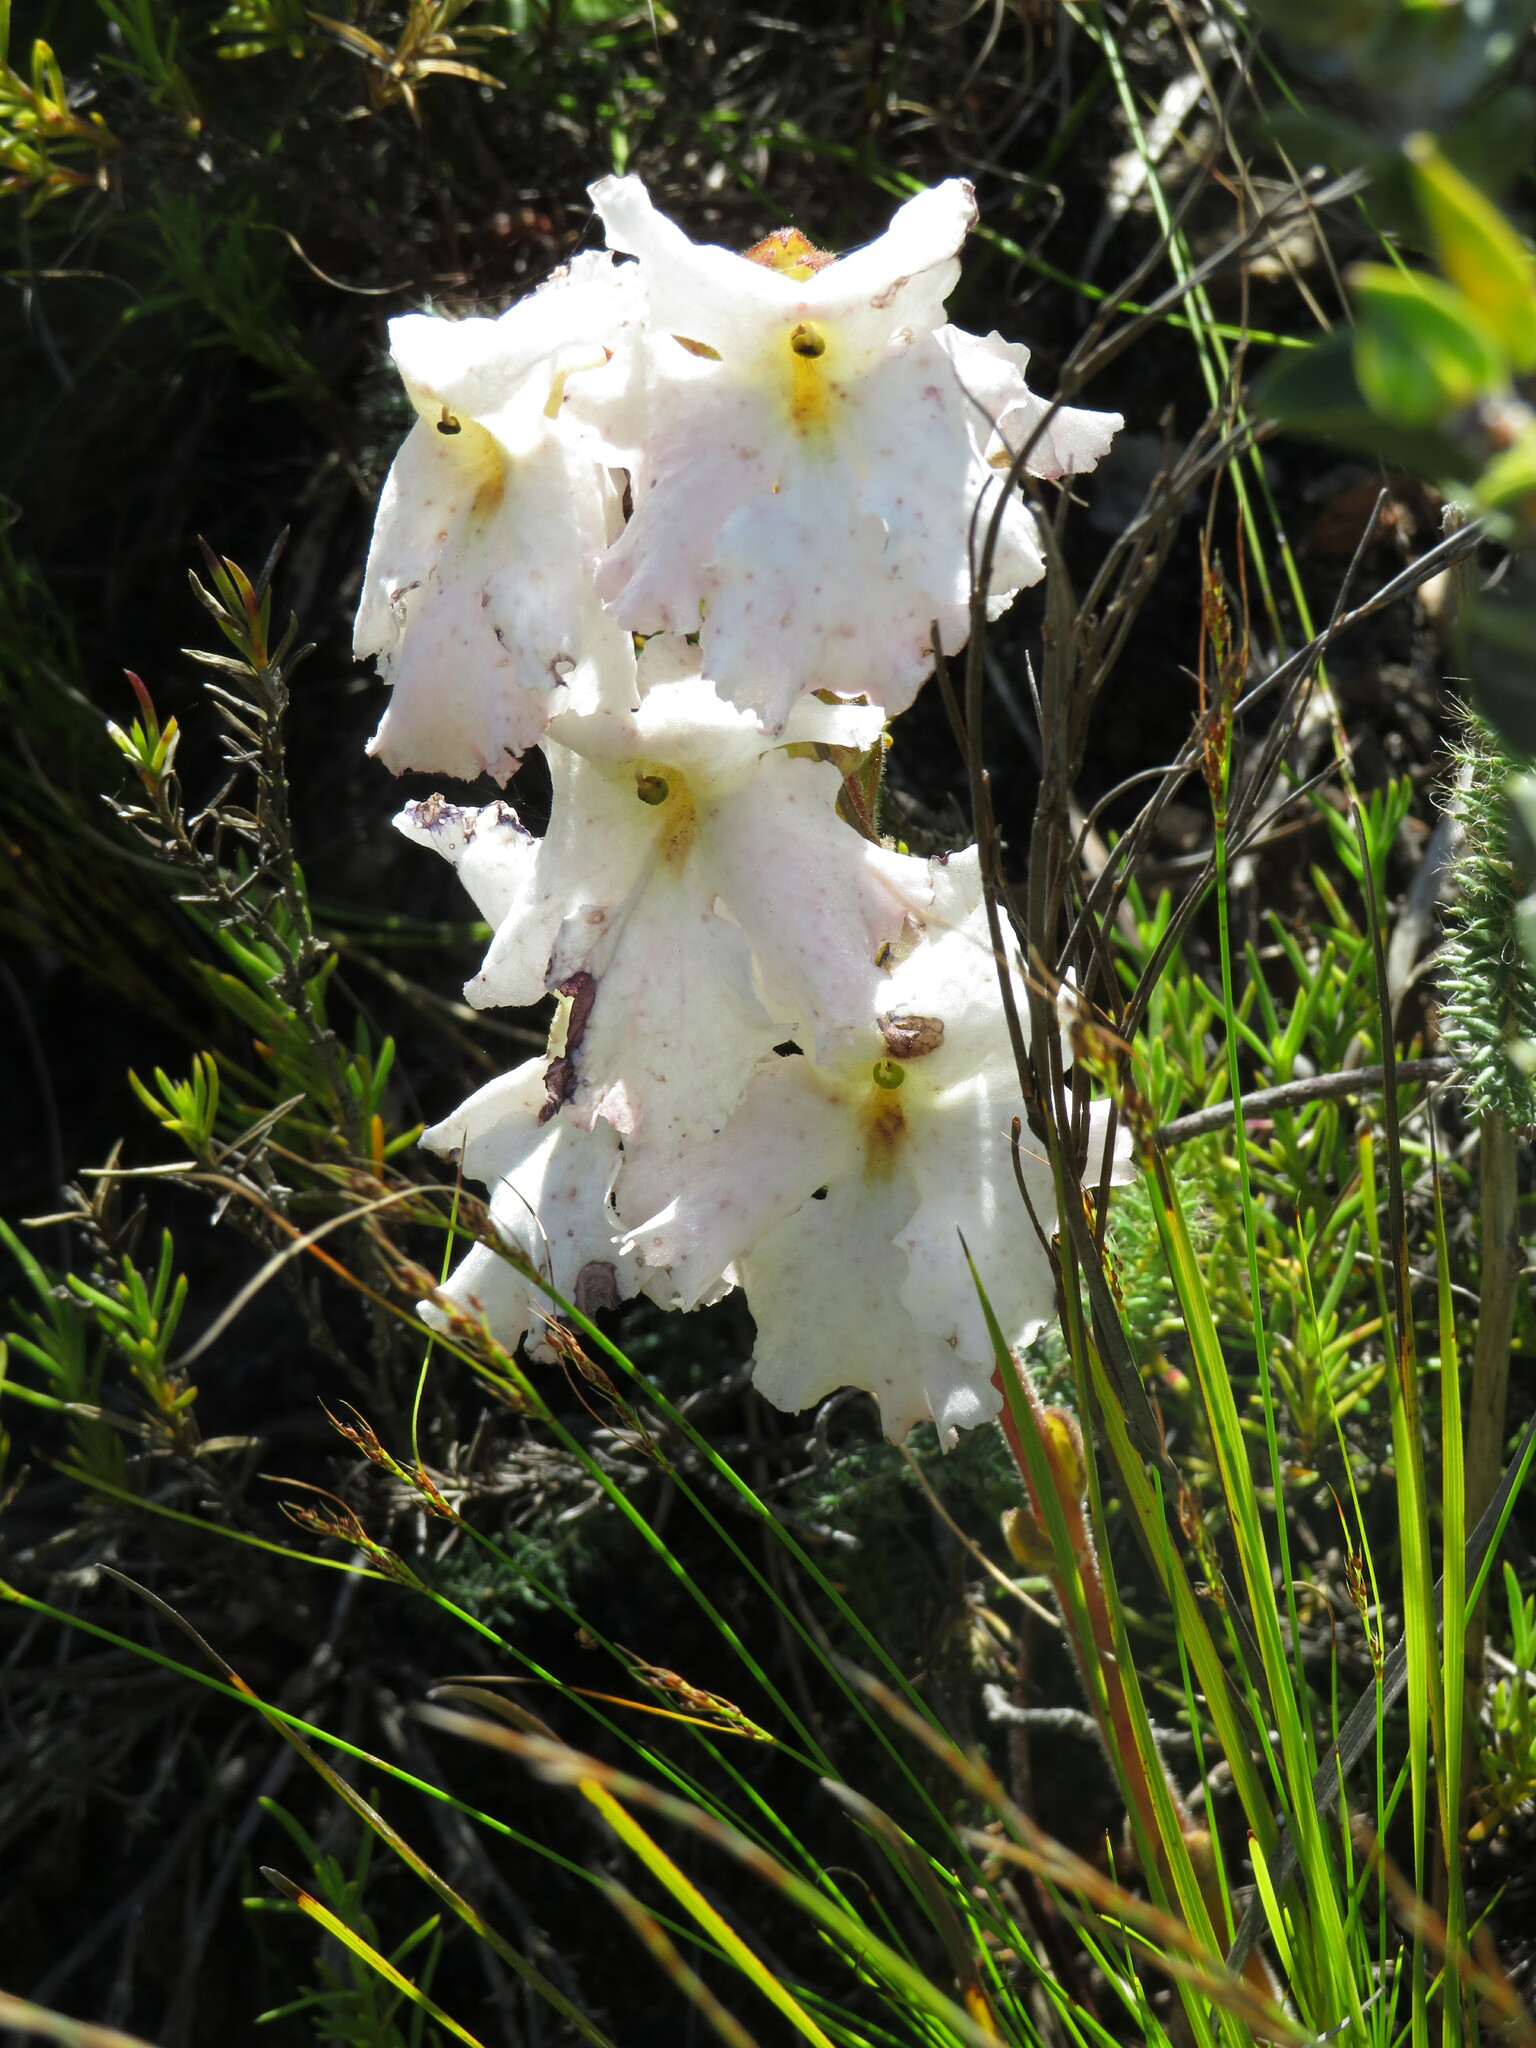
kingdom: Plantae
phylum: Tracheophyta
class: Magnoliopsida
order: Lamiales
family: Orobanchaceae
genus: Harveya
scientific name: Harveya capensis
